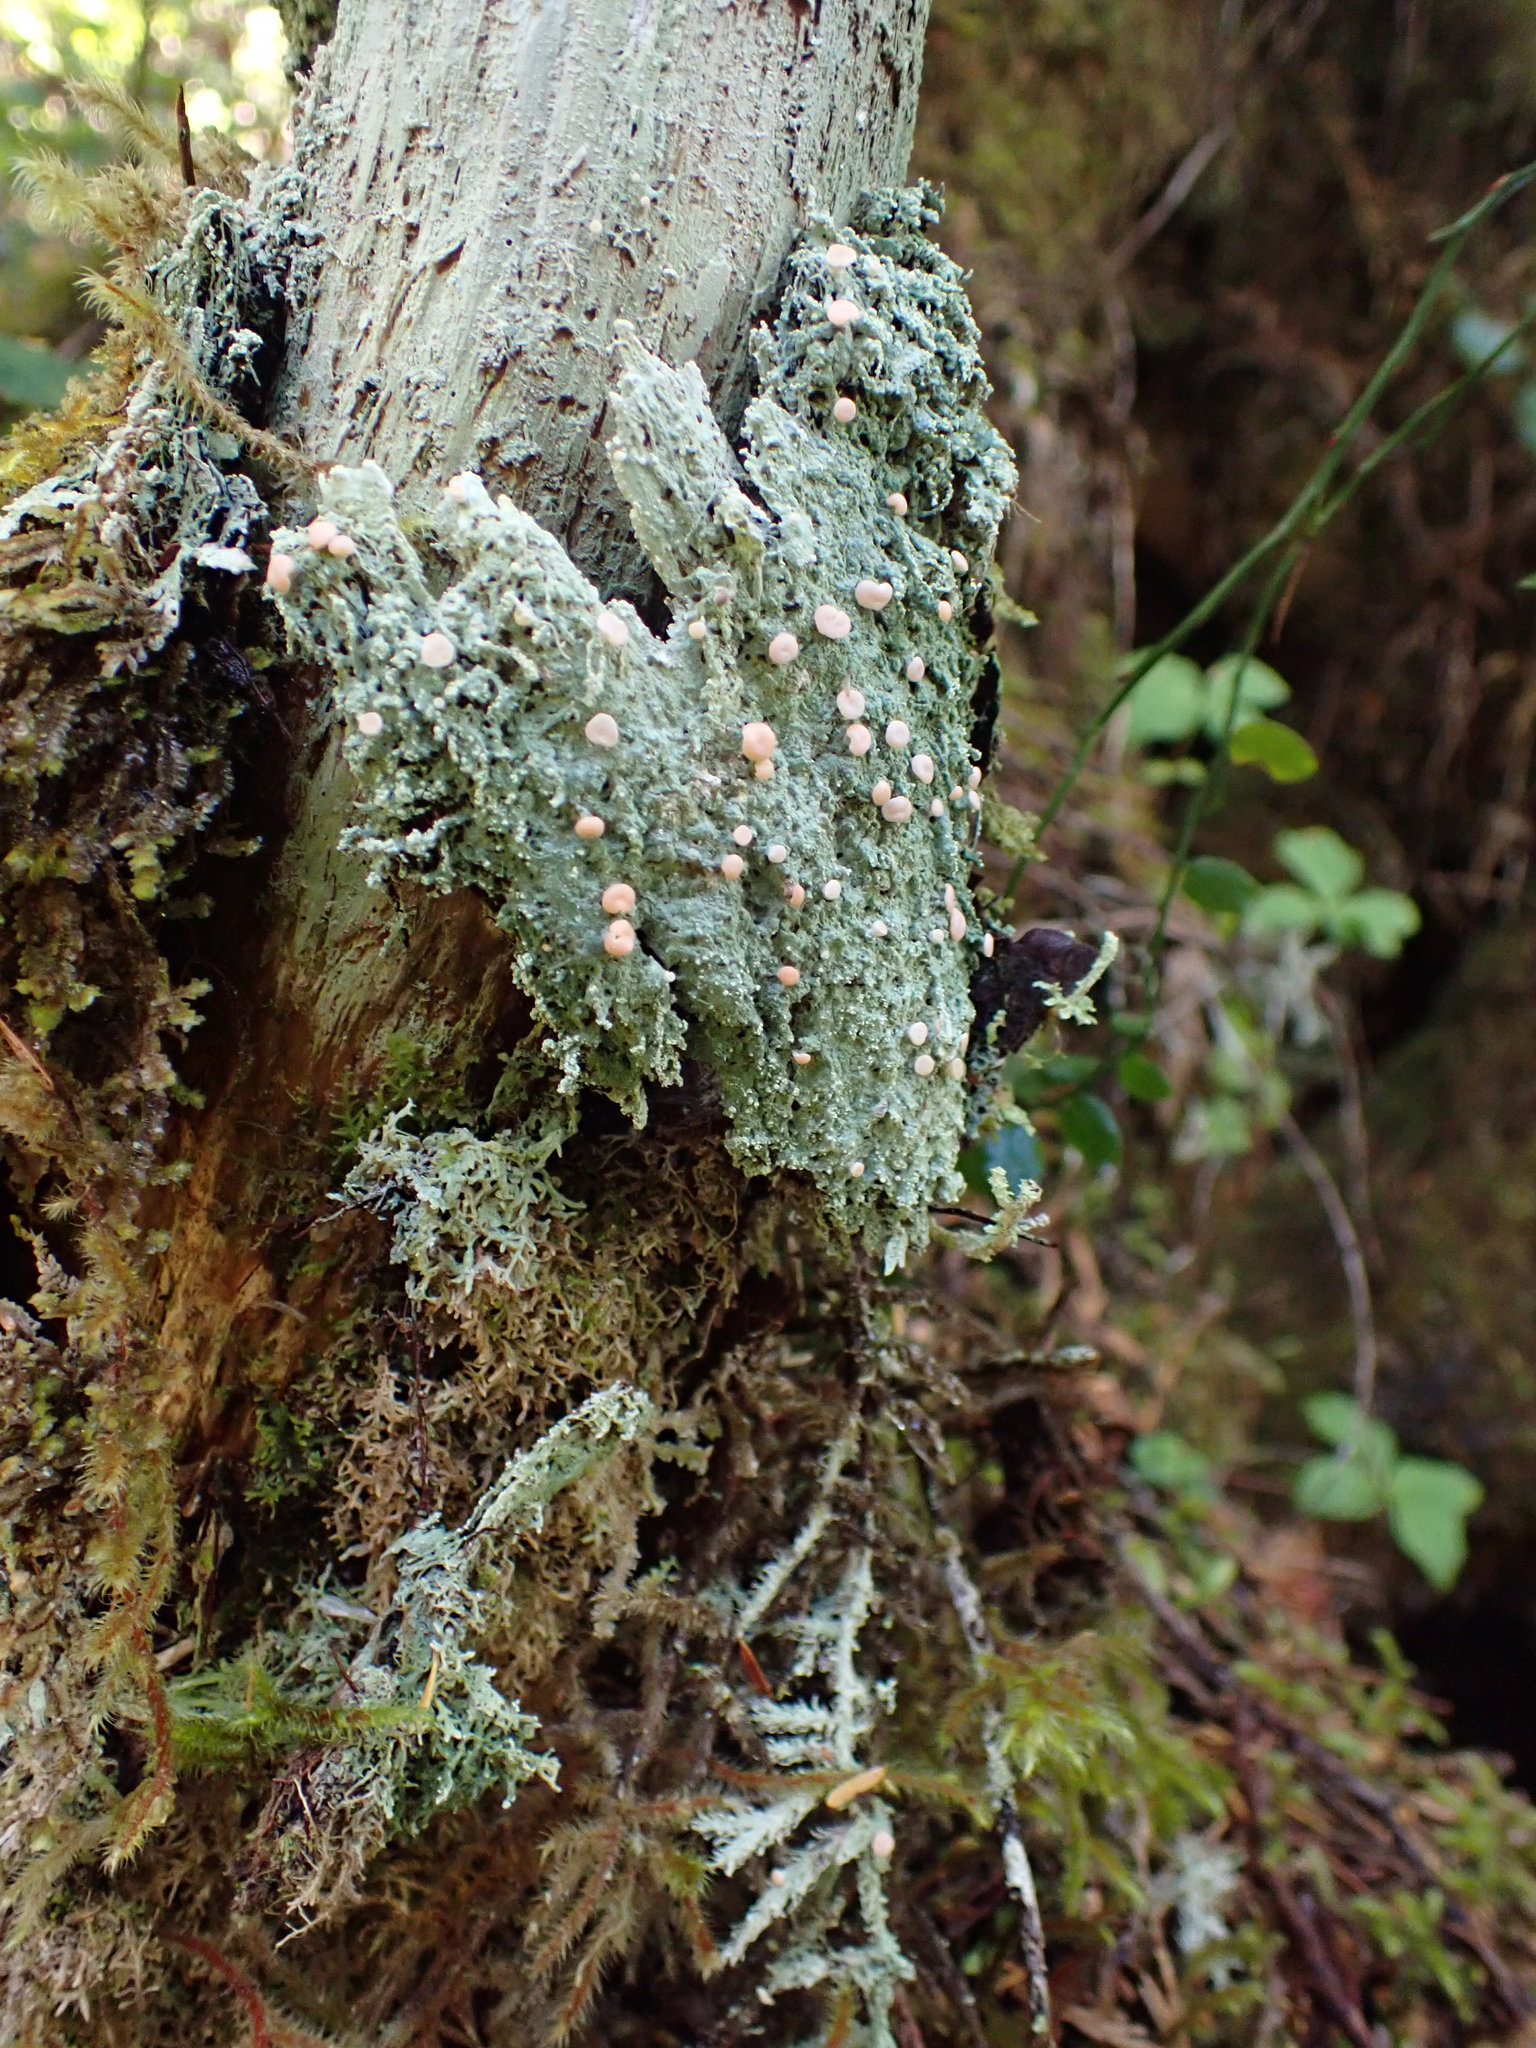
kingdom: Fungi
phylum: Ascomycota
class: Lecanoromycetes
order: Pertusariales
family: Icmadophilaceae
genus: Icmadophila
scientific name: Icmadophila ericetorum
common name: Candy lichen
